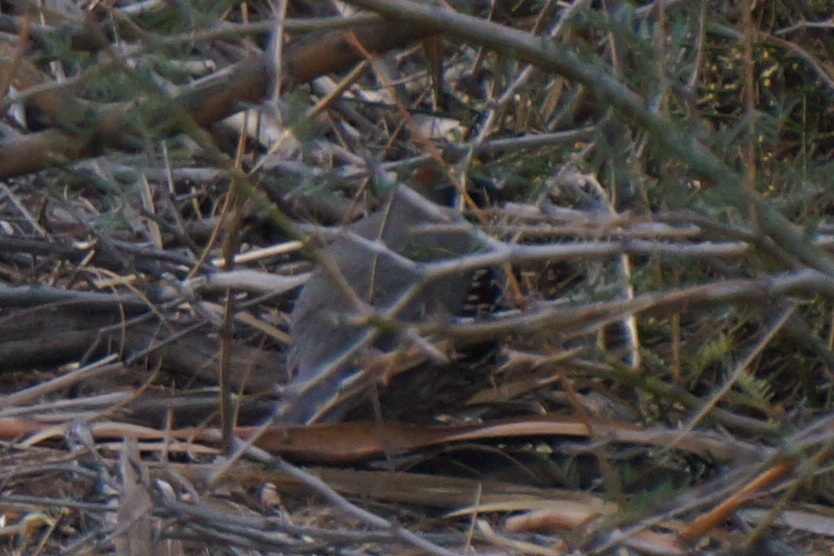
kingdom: Animalia
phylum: Chordata
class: Aves
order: Galliformes
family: Odontophoridae
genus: Callipepla
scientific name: Callipepla gambelii
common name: Gambel's quail
